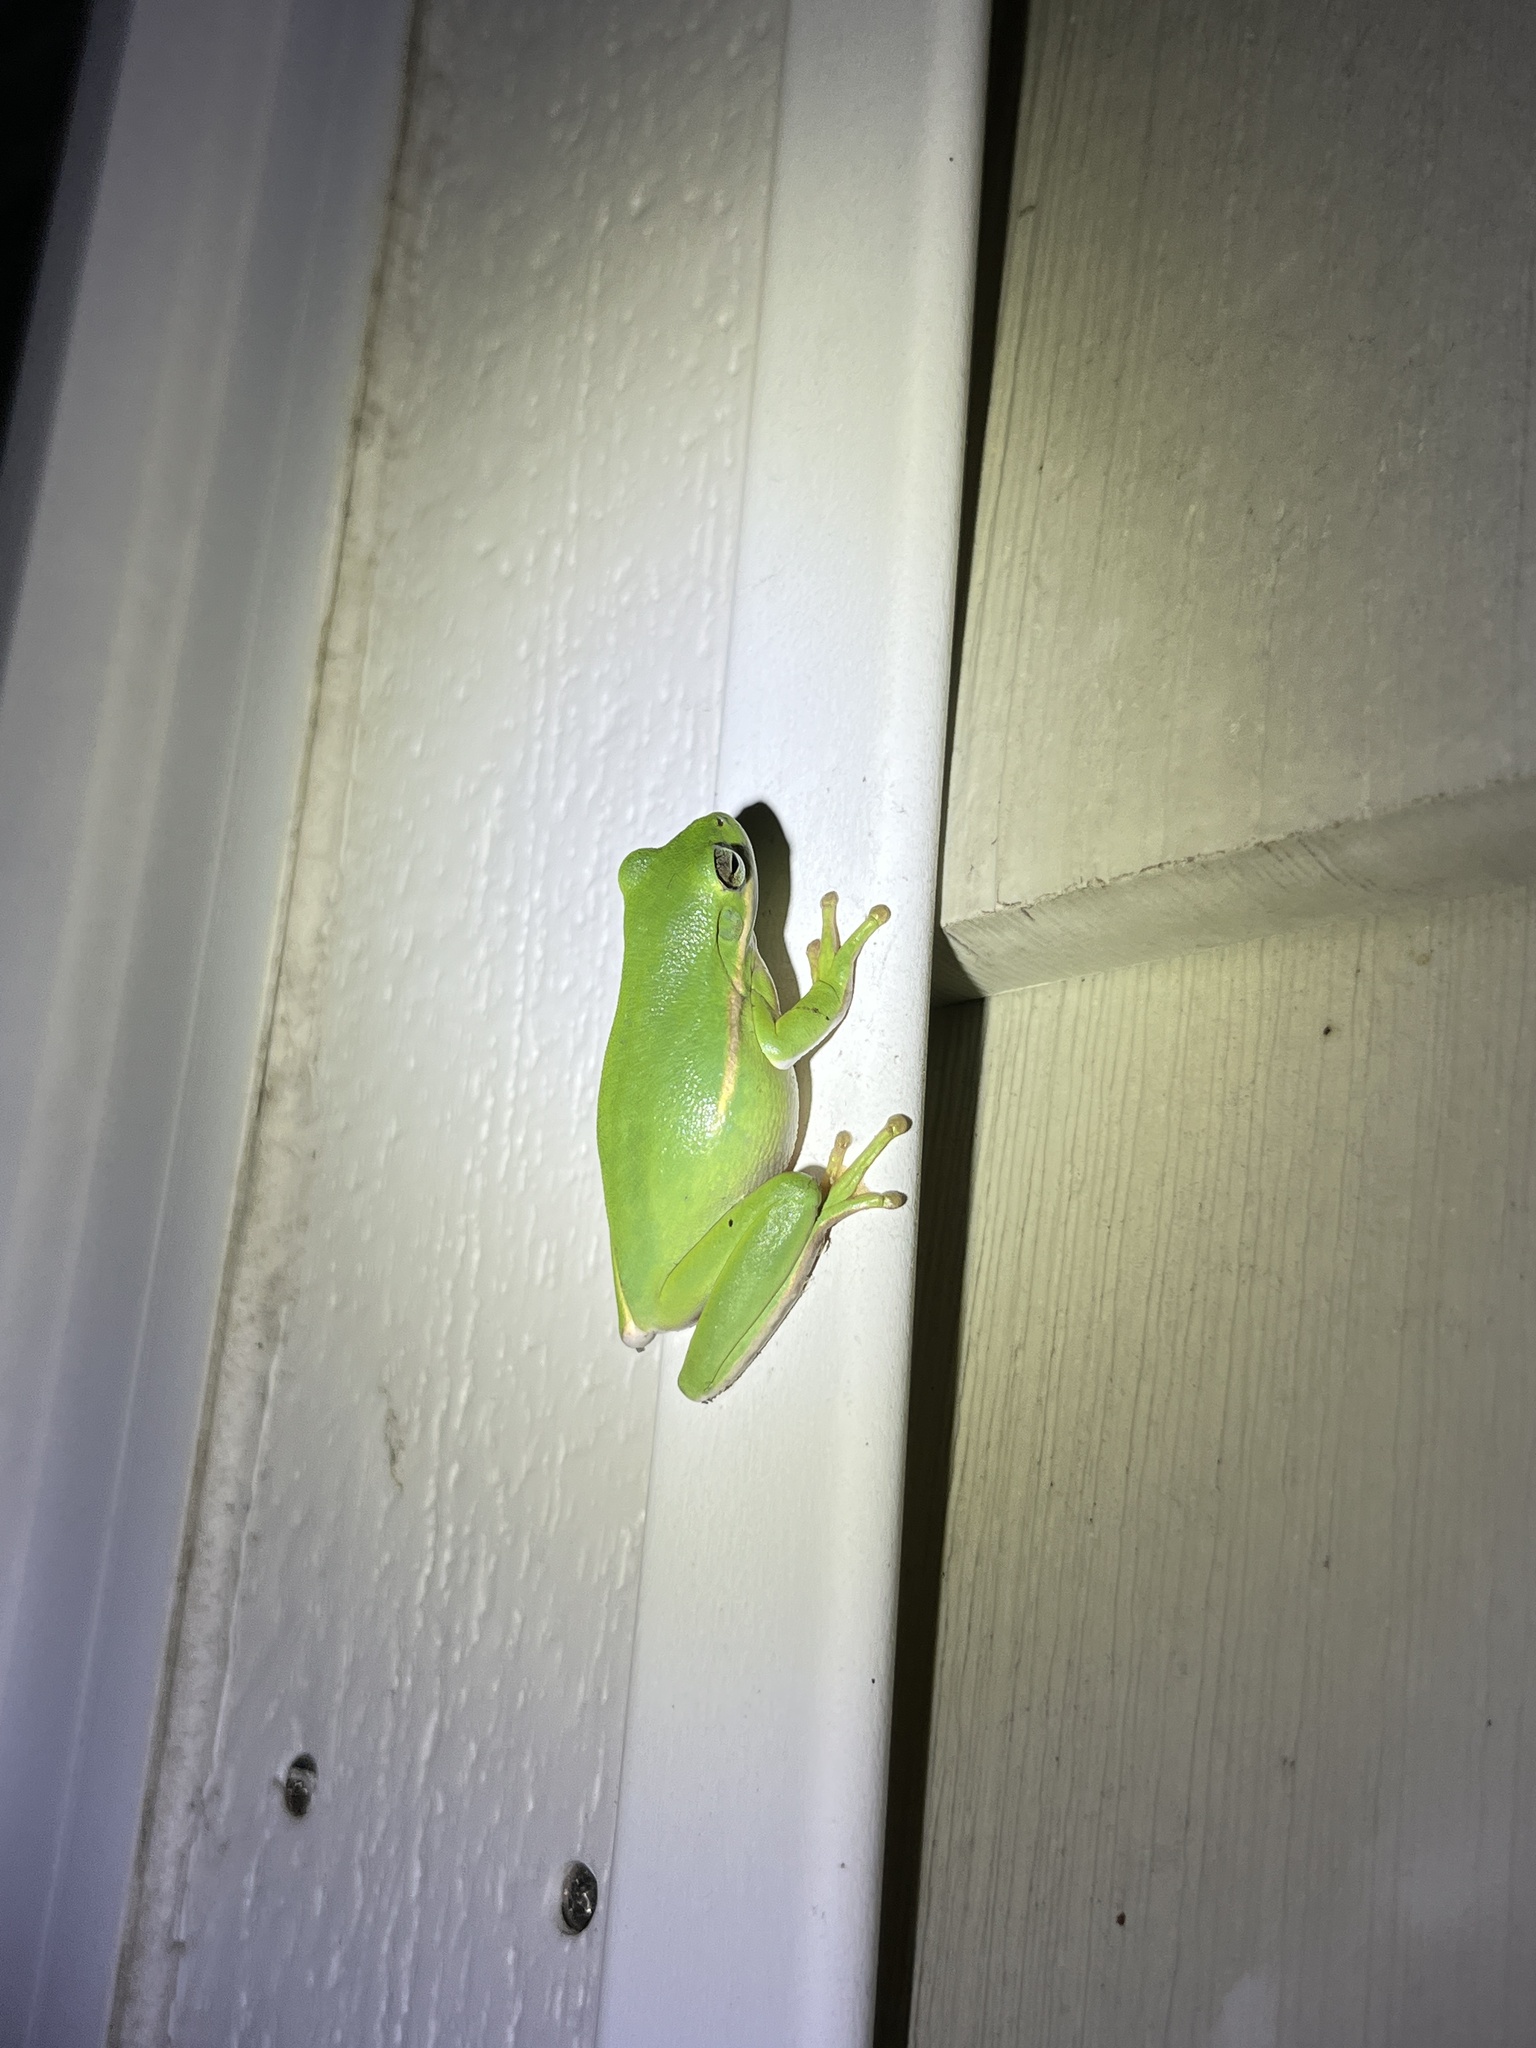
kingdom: Animalia
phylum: Chordata
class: Amphibia
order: Anura
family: Hylidae
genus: Dryophytes
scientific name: Dryophytes cinereus
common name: Green treefrog
